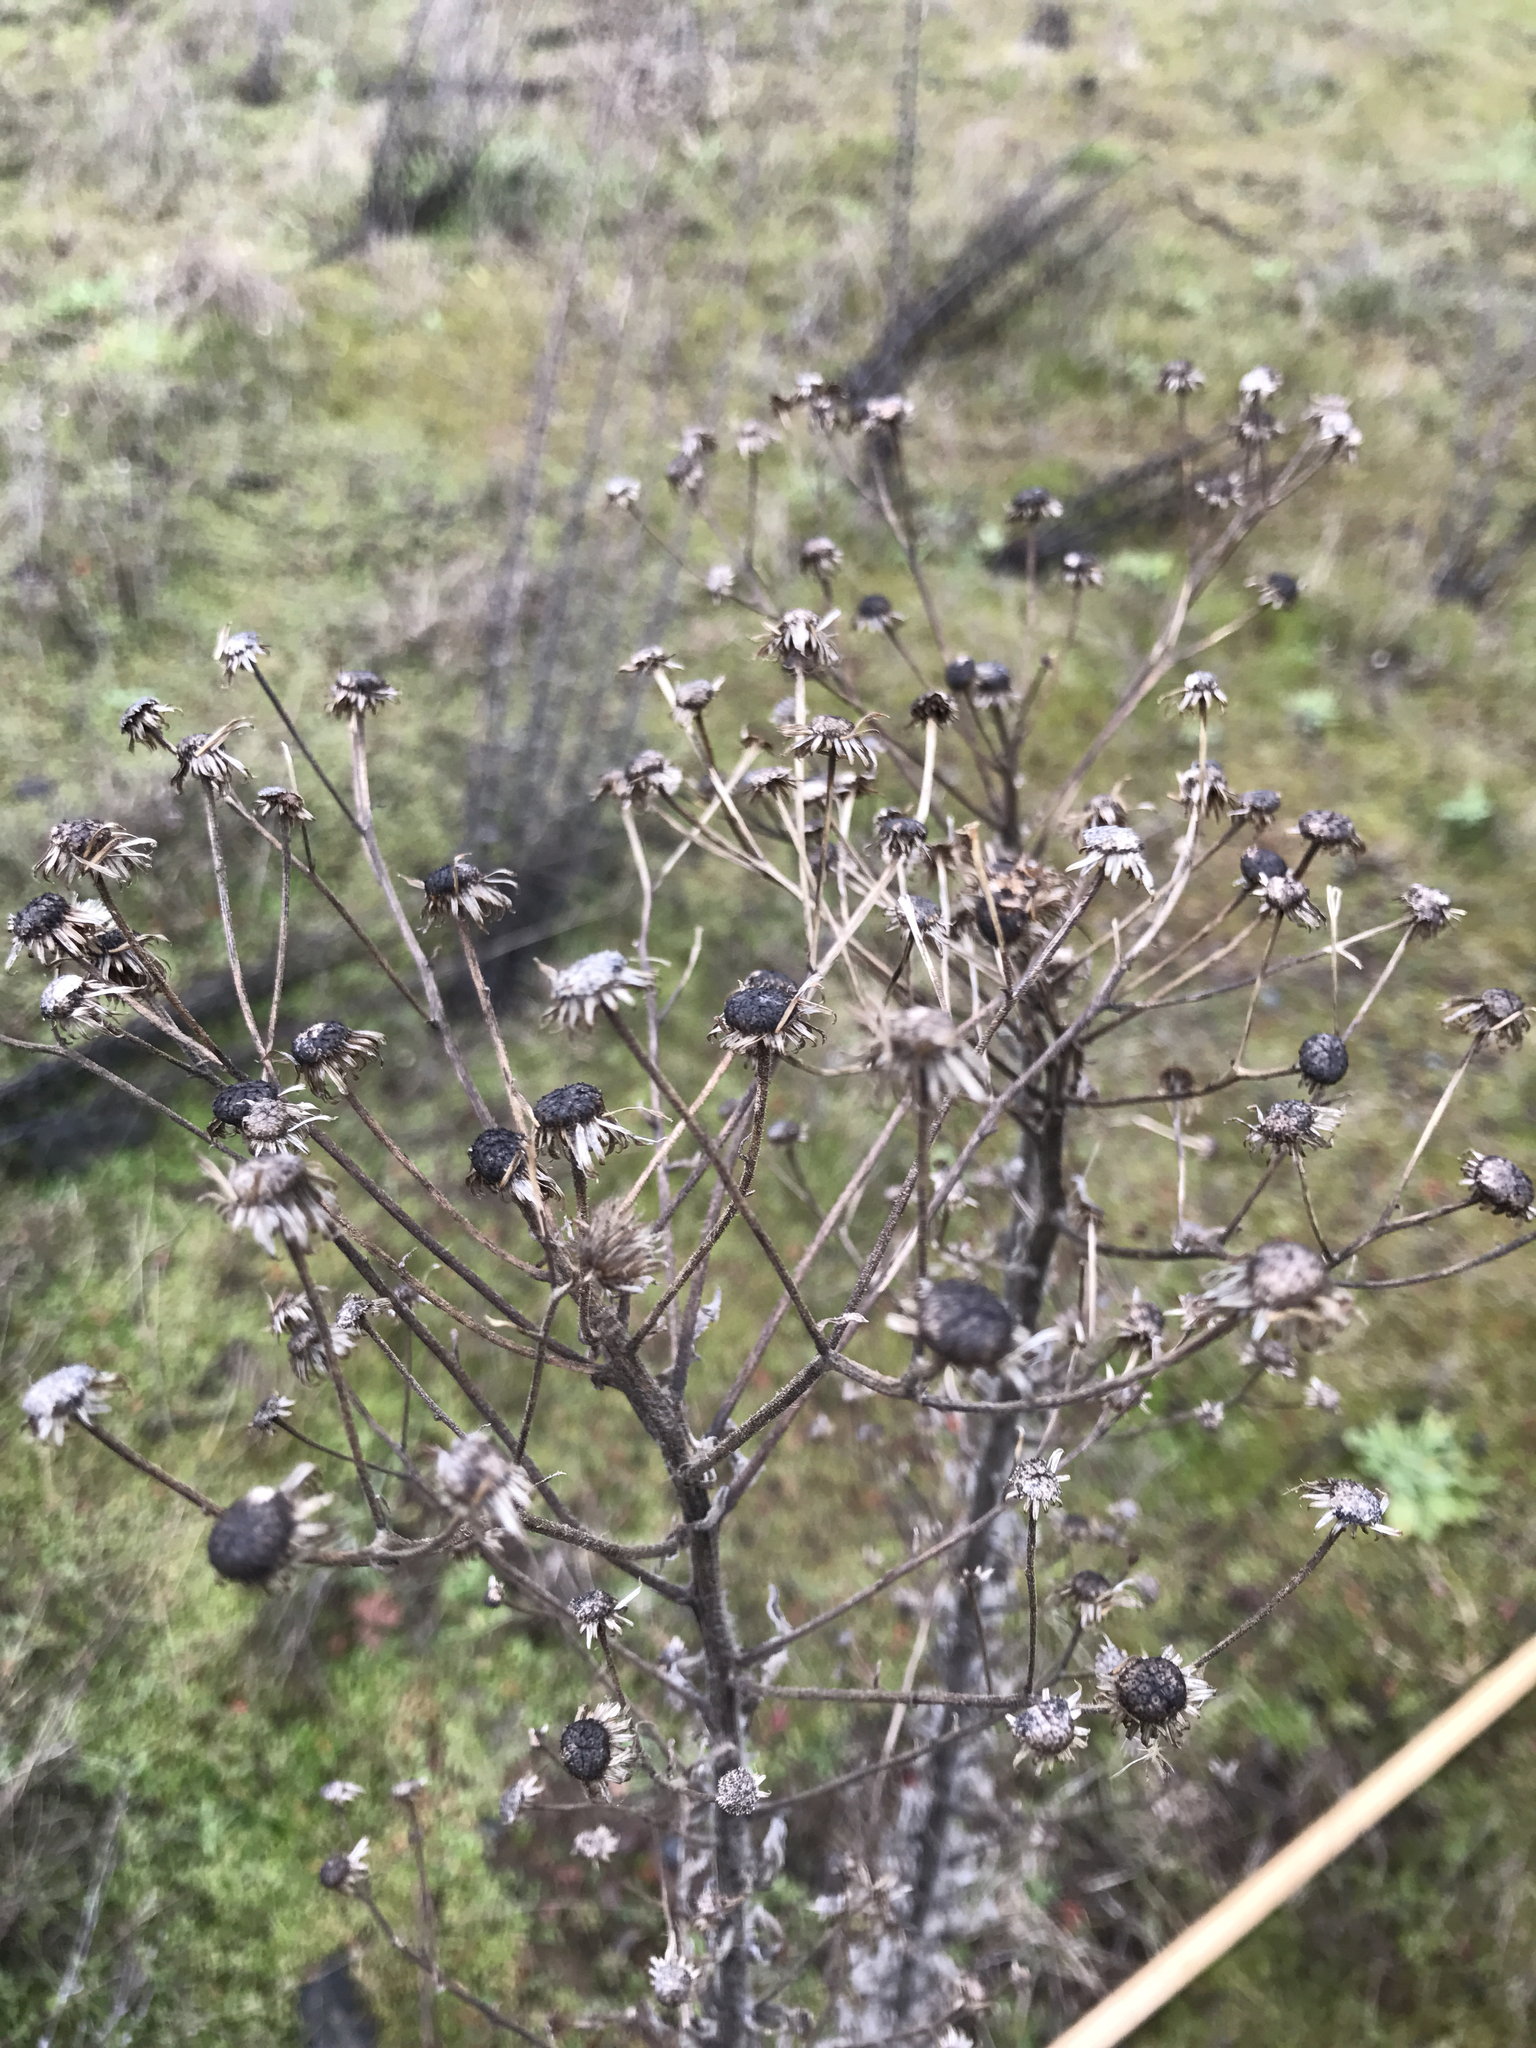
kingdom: Plantae
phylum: Tracheophyta
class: Magnoliopsida
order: Asterales
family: Asteraceae
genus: Heterotheca
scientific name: Heterotheca grandiflora
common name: Telegraphweed
